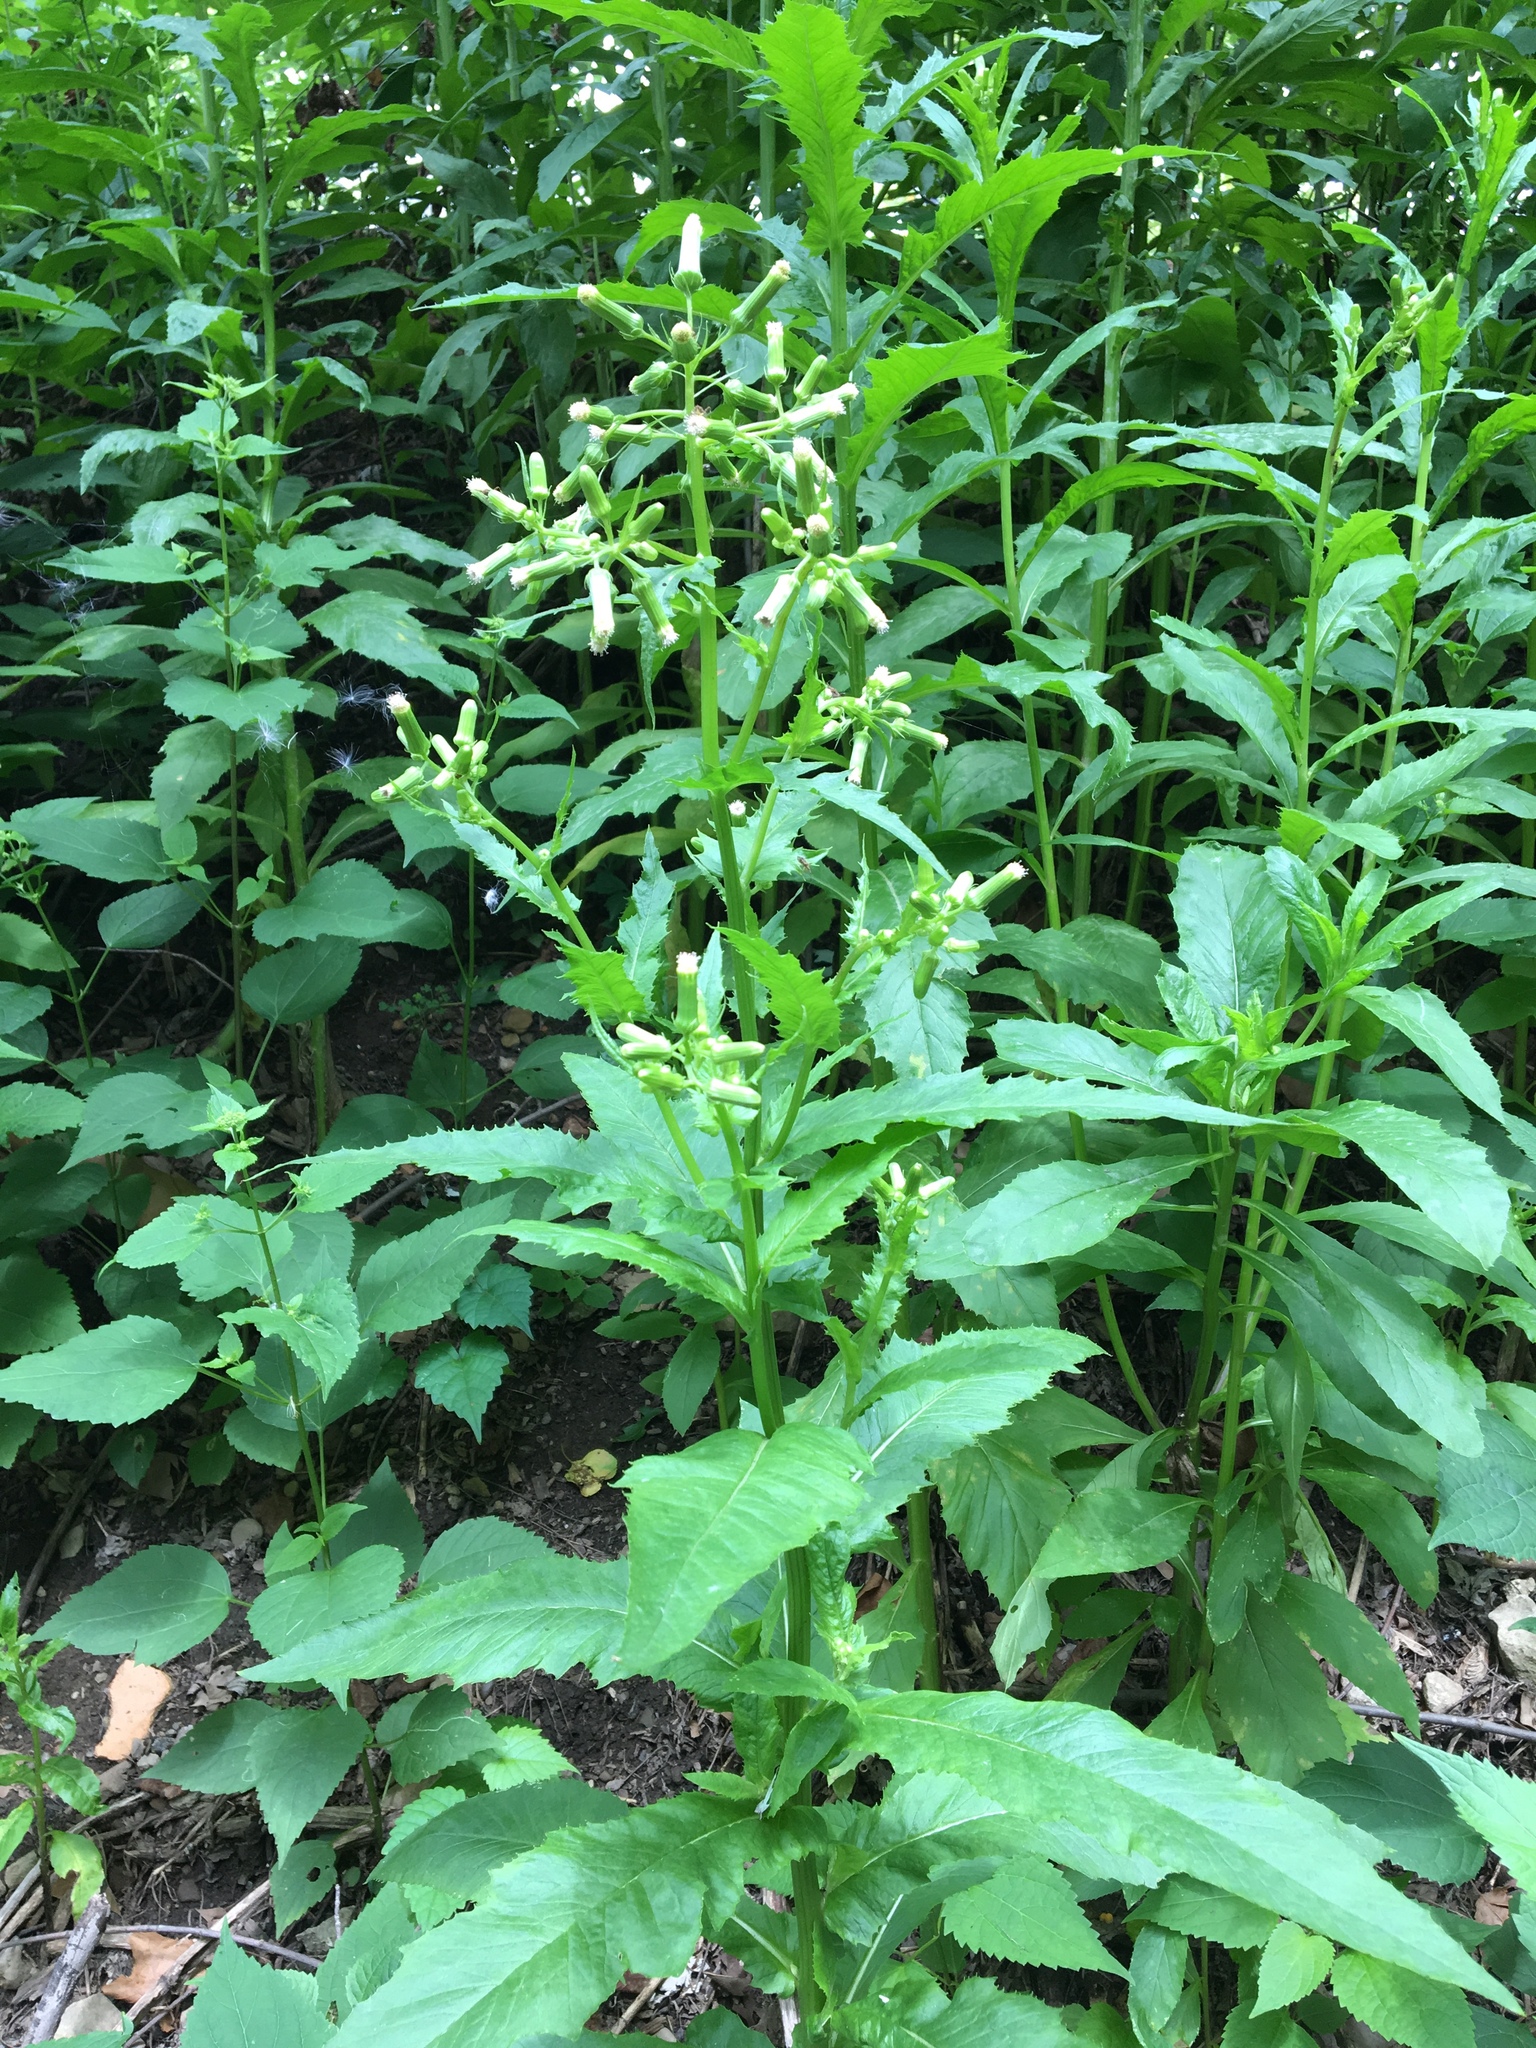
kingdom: Plantae
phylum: Tracheophyta
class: Magnoliopsida
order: Asterales
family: Asteraceae
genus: Erechtites
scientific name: Erechtites hieraciifolius
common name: American burnweed
